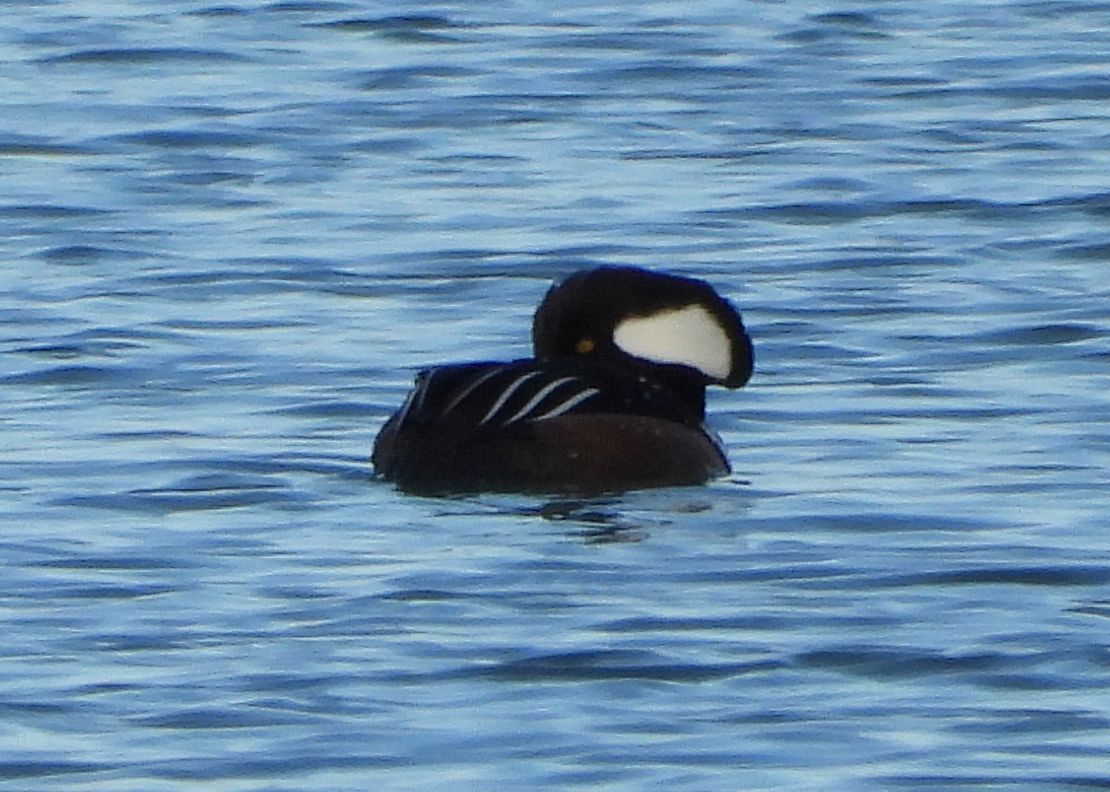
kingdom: Animalia
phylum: Chordata
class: Aves
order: Anseriformes
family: Anatidae
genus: Lophodytes
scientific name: Lophodytes cucullatus
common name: Hooded merganser
